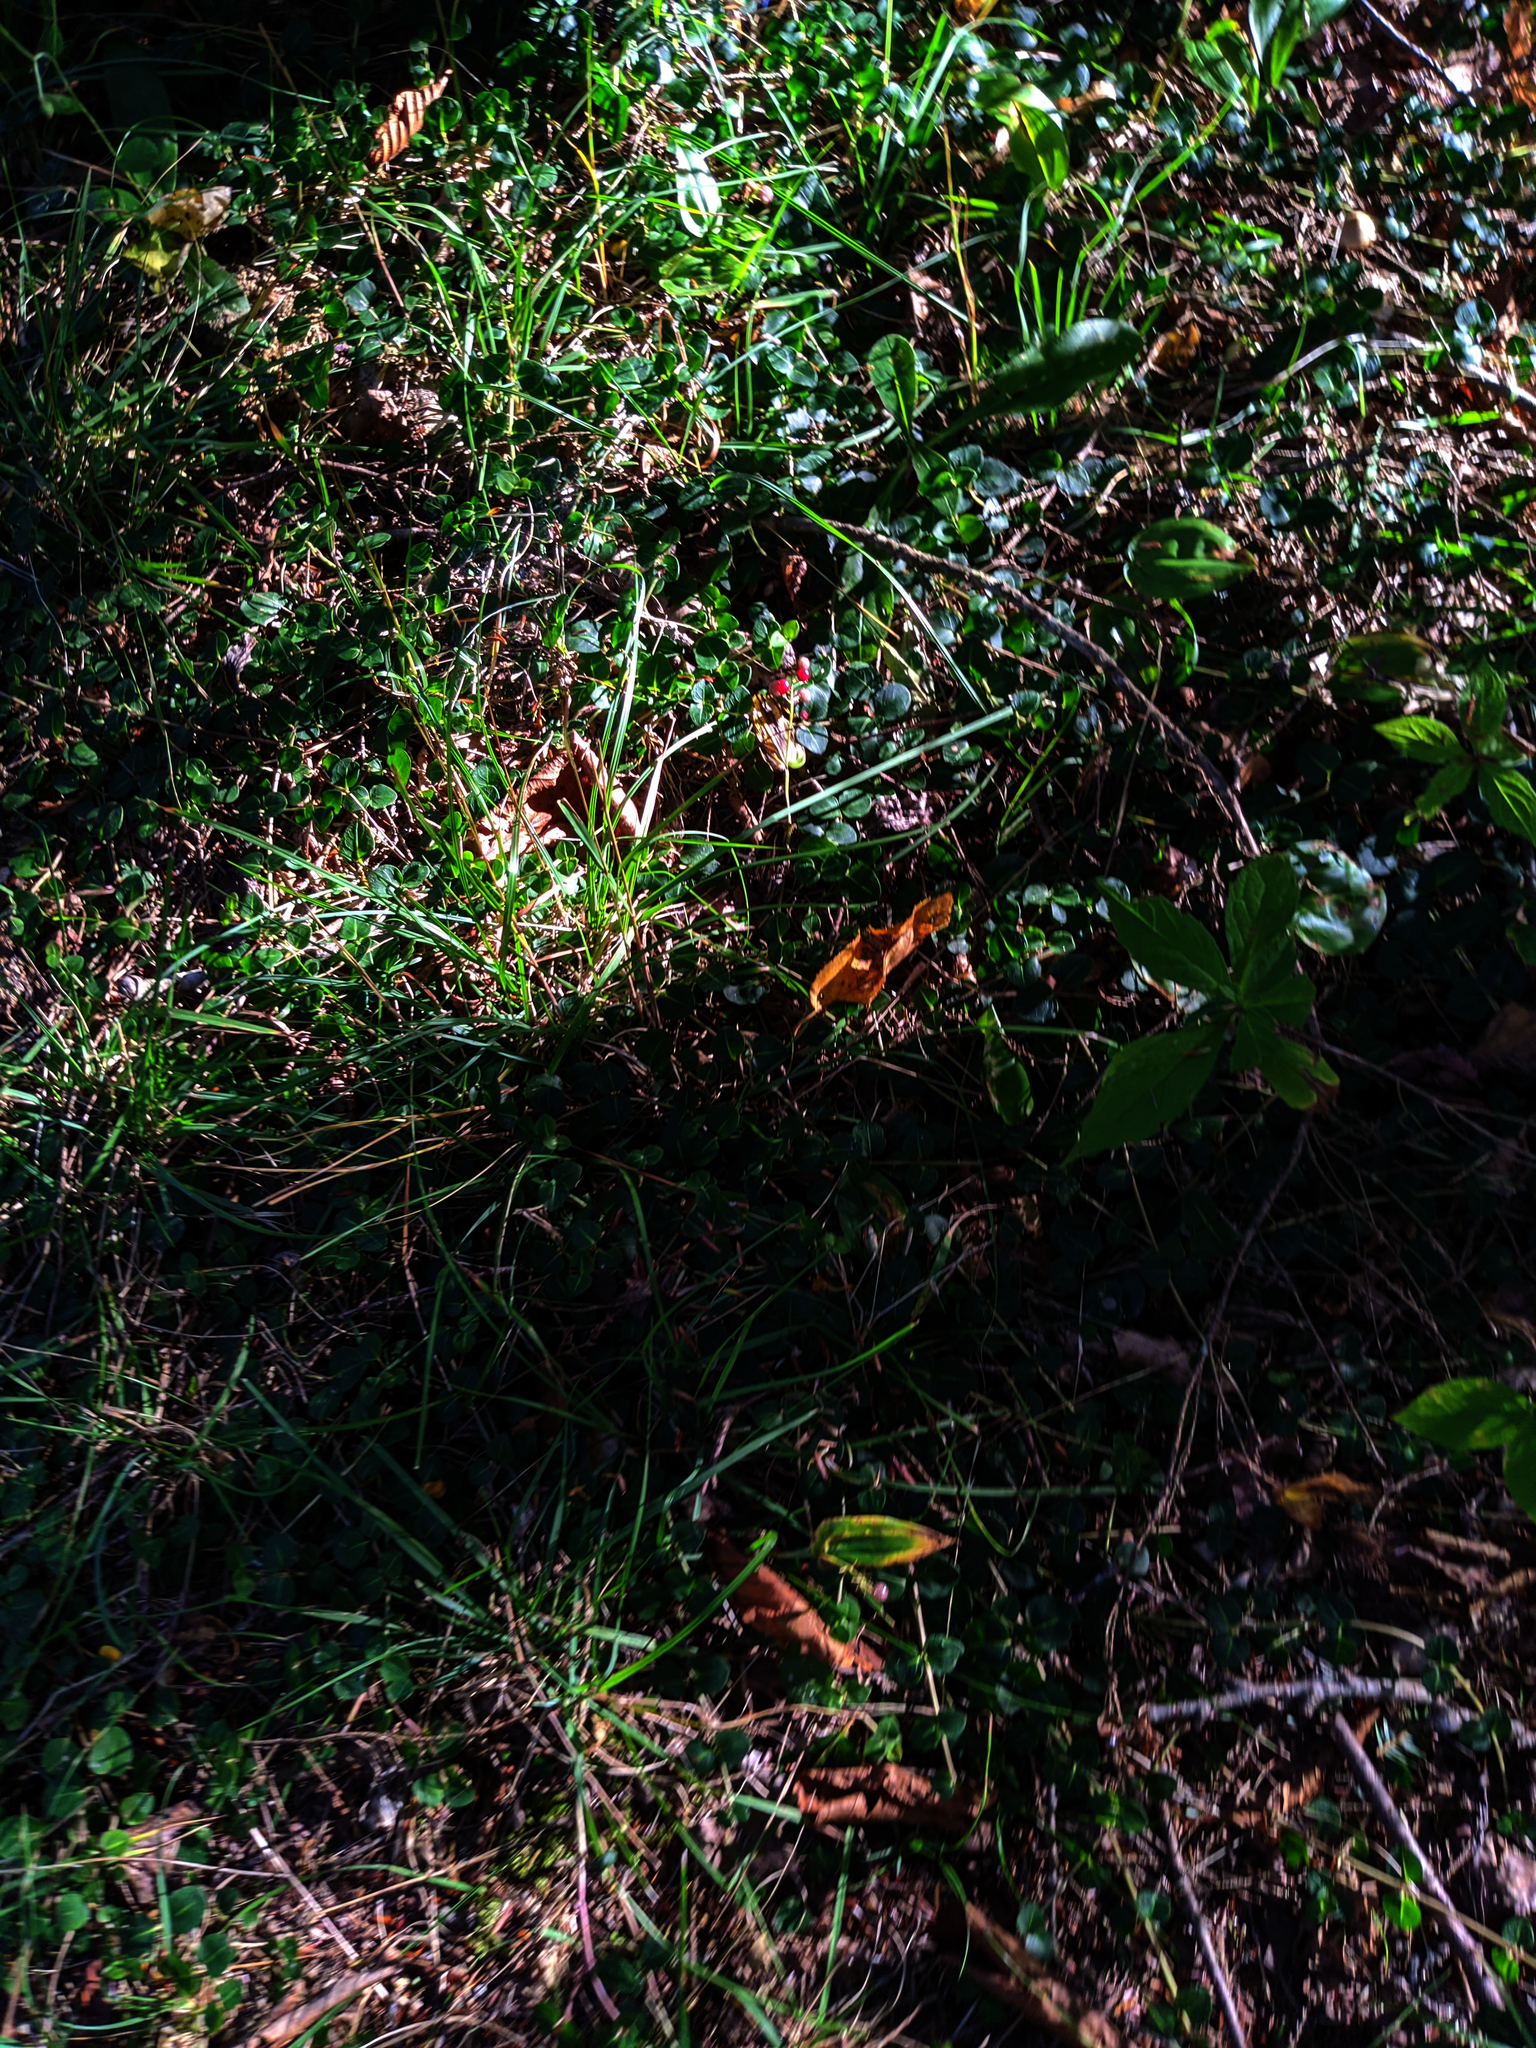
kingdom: Plantae
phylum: Tracheophyta
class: Magnoliopsida
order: Gentianales
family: Rubiaceae
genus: Mitchella
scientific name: Mitchella repens
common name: Partridge-berry
